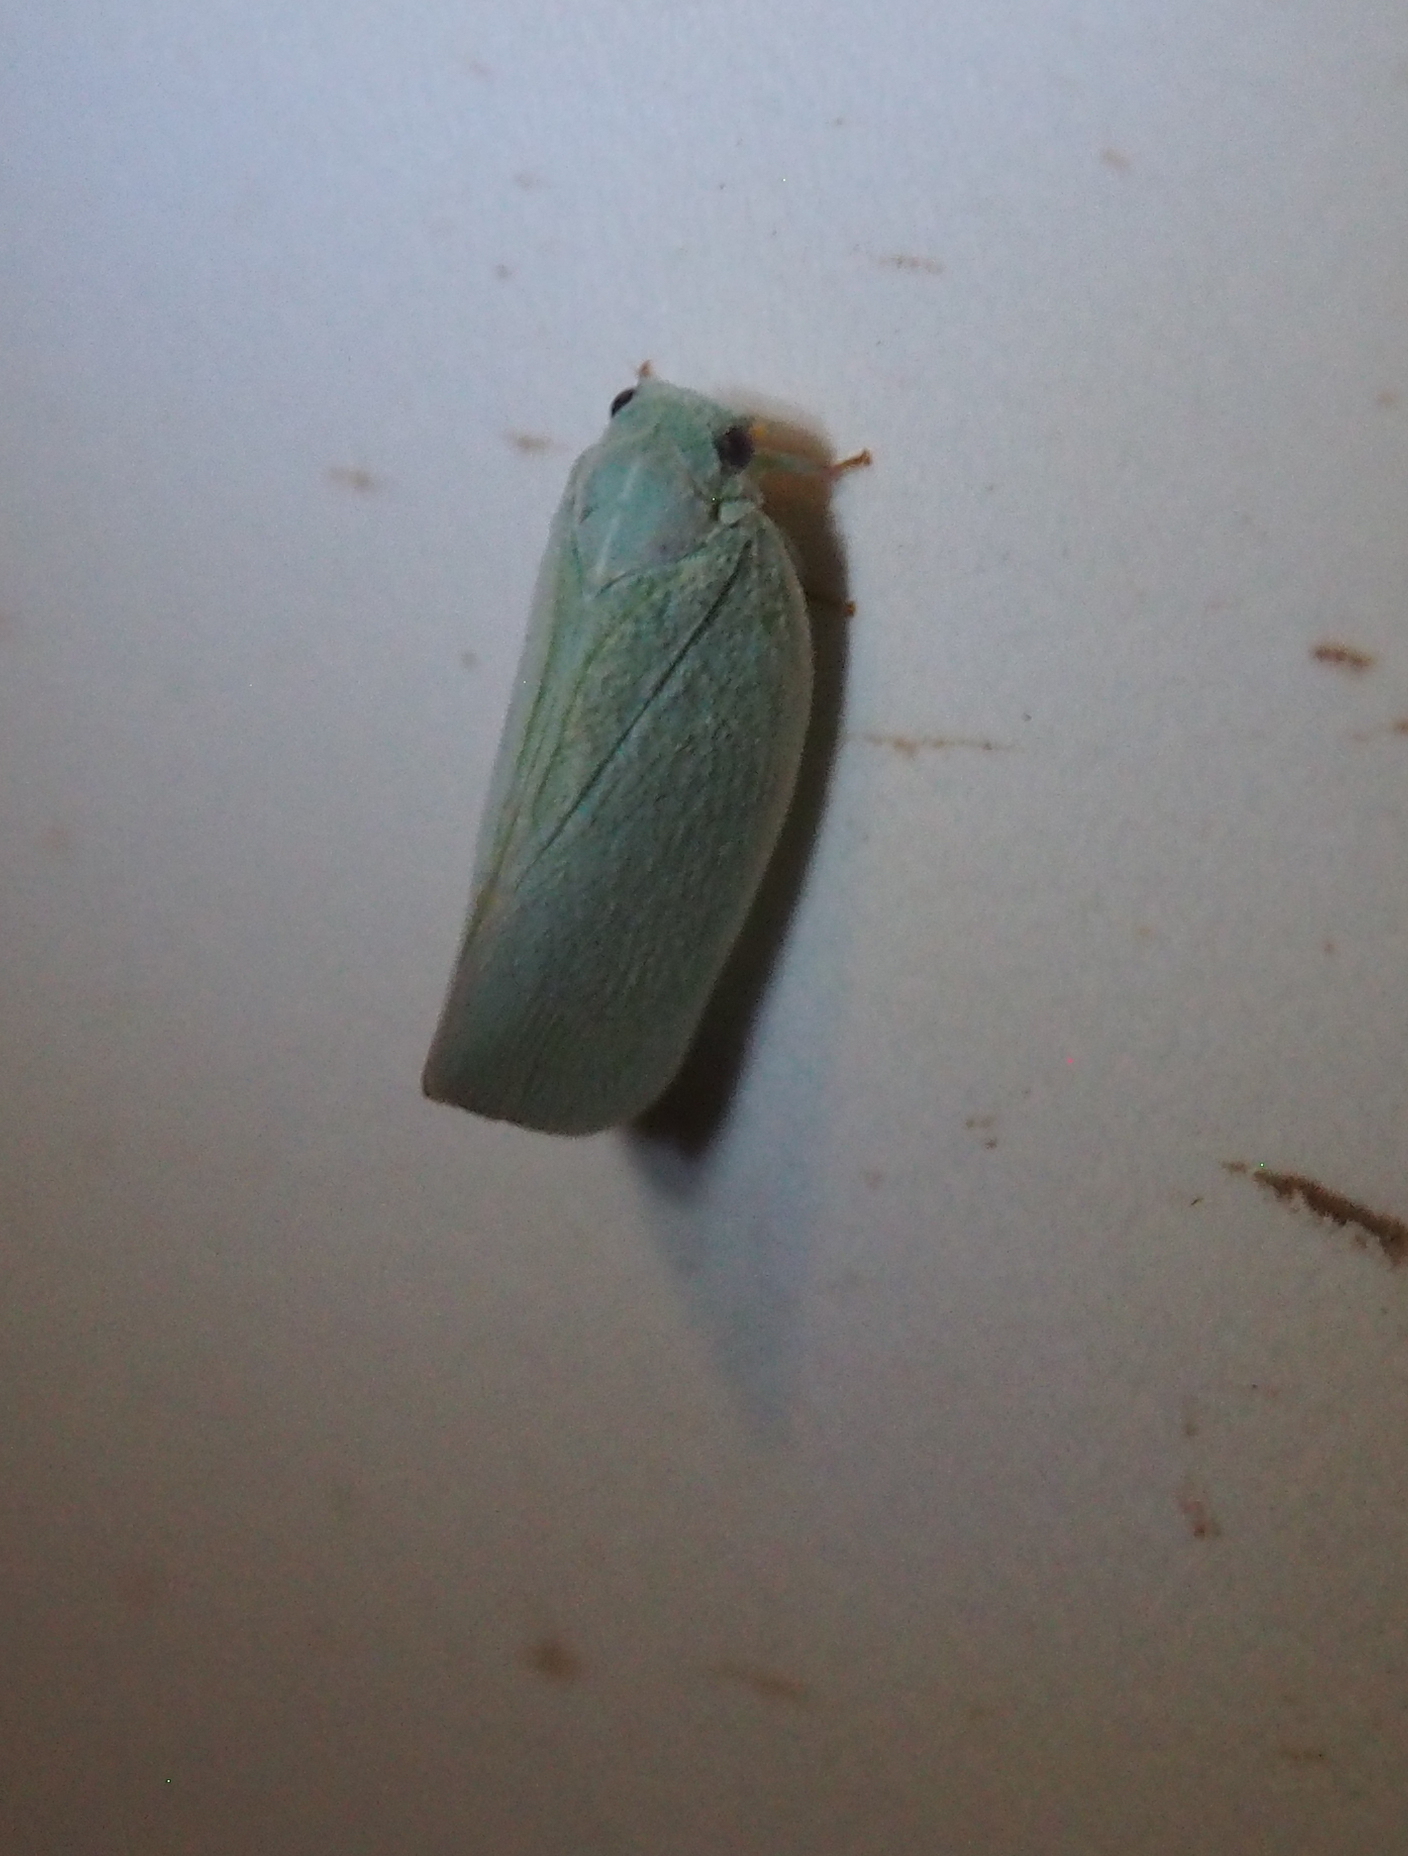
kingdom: Animalia
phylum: Arthropoda
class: Insecta
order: Hemiptera
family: Flatidae
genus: Flatormenis
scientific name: Flatormenis proxima
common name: Northern flatid planthopper
